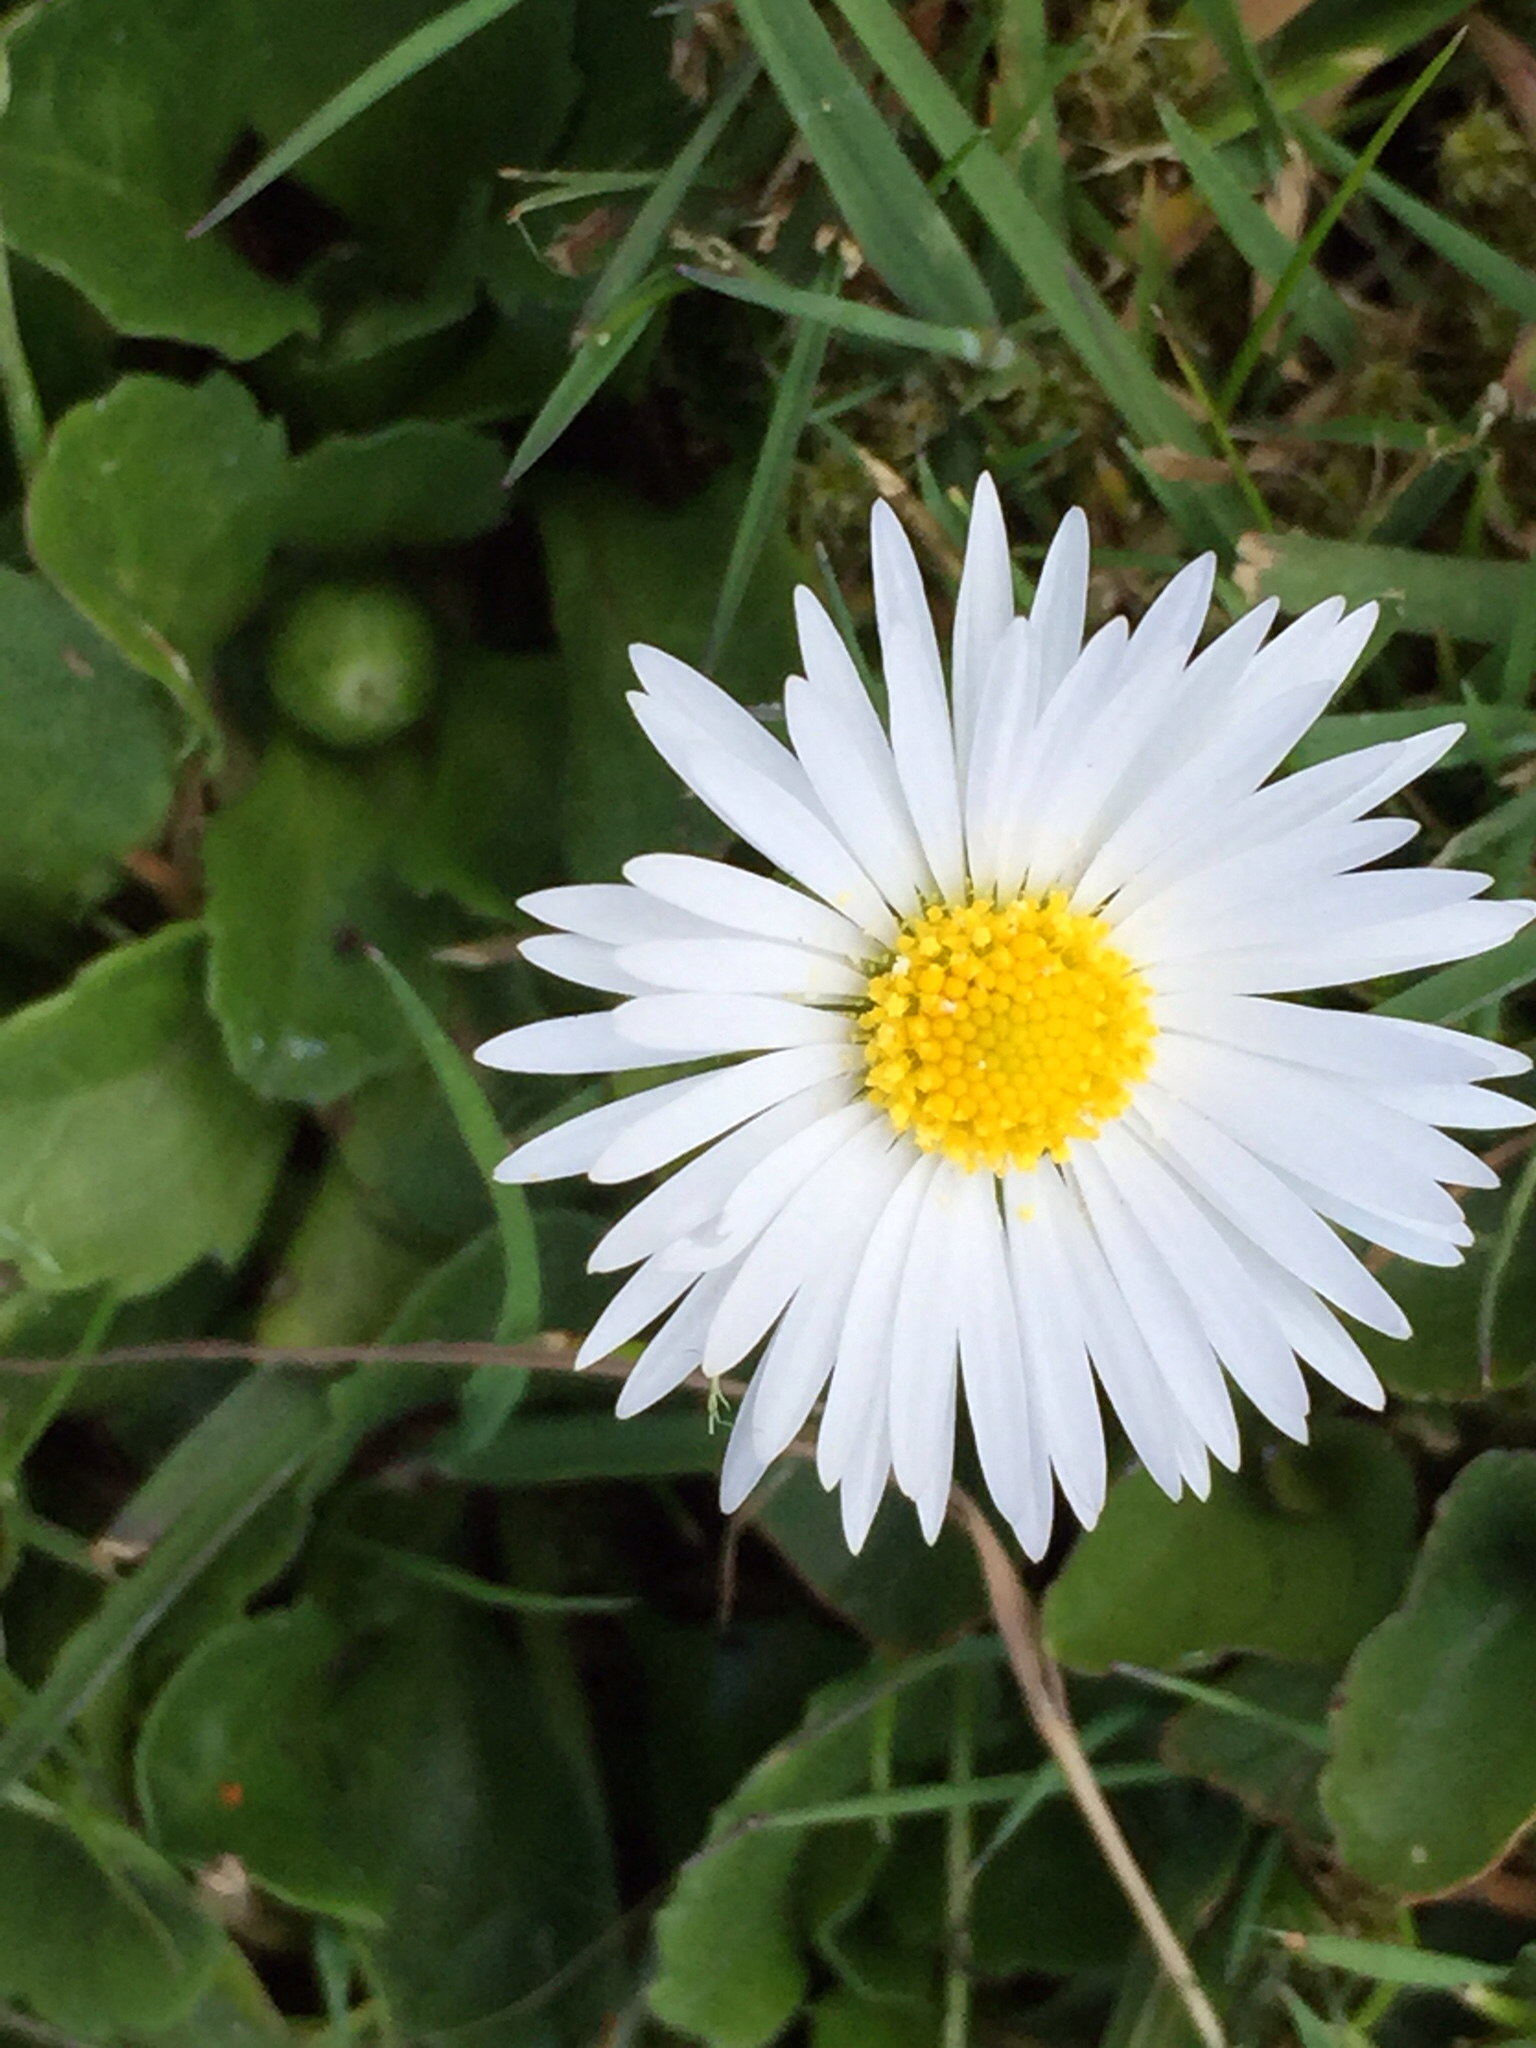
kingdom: Plantae
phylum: Tracheophyta
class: Magnoliopsida
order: Asterales
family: Asteraceae
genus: Bellis
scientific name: Bellis perennis
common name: Lawndaisy
